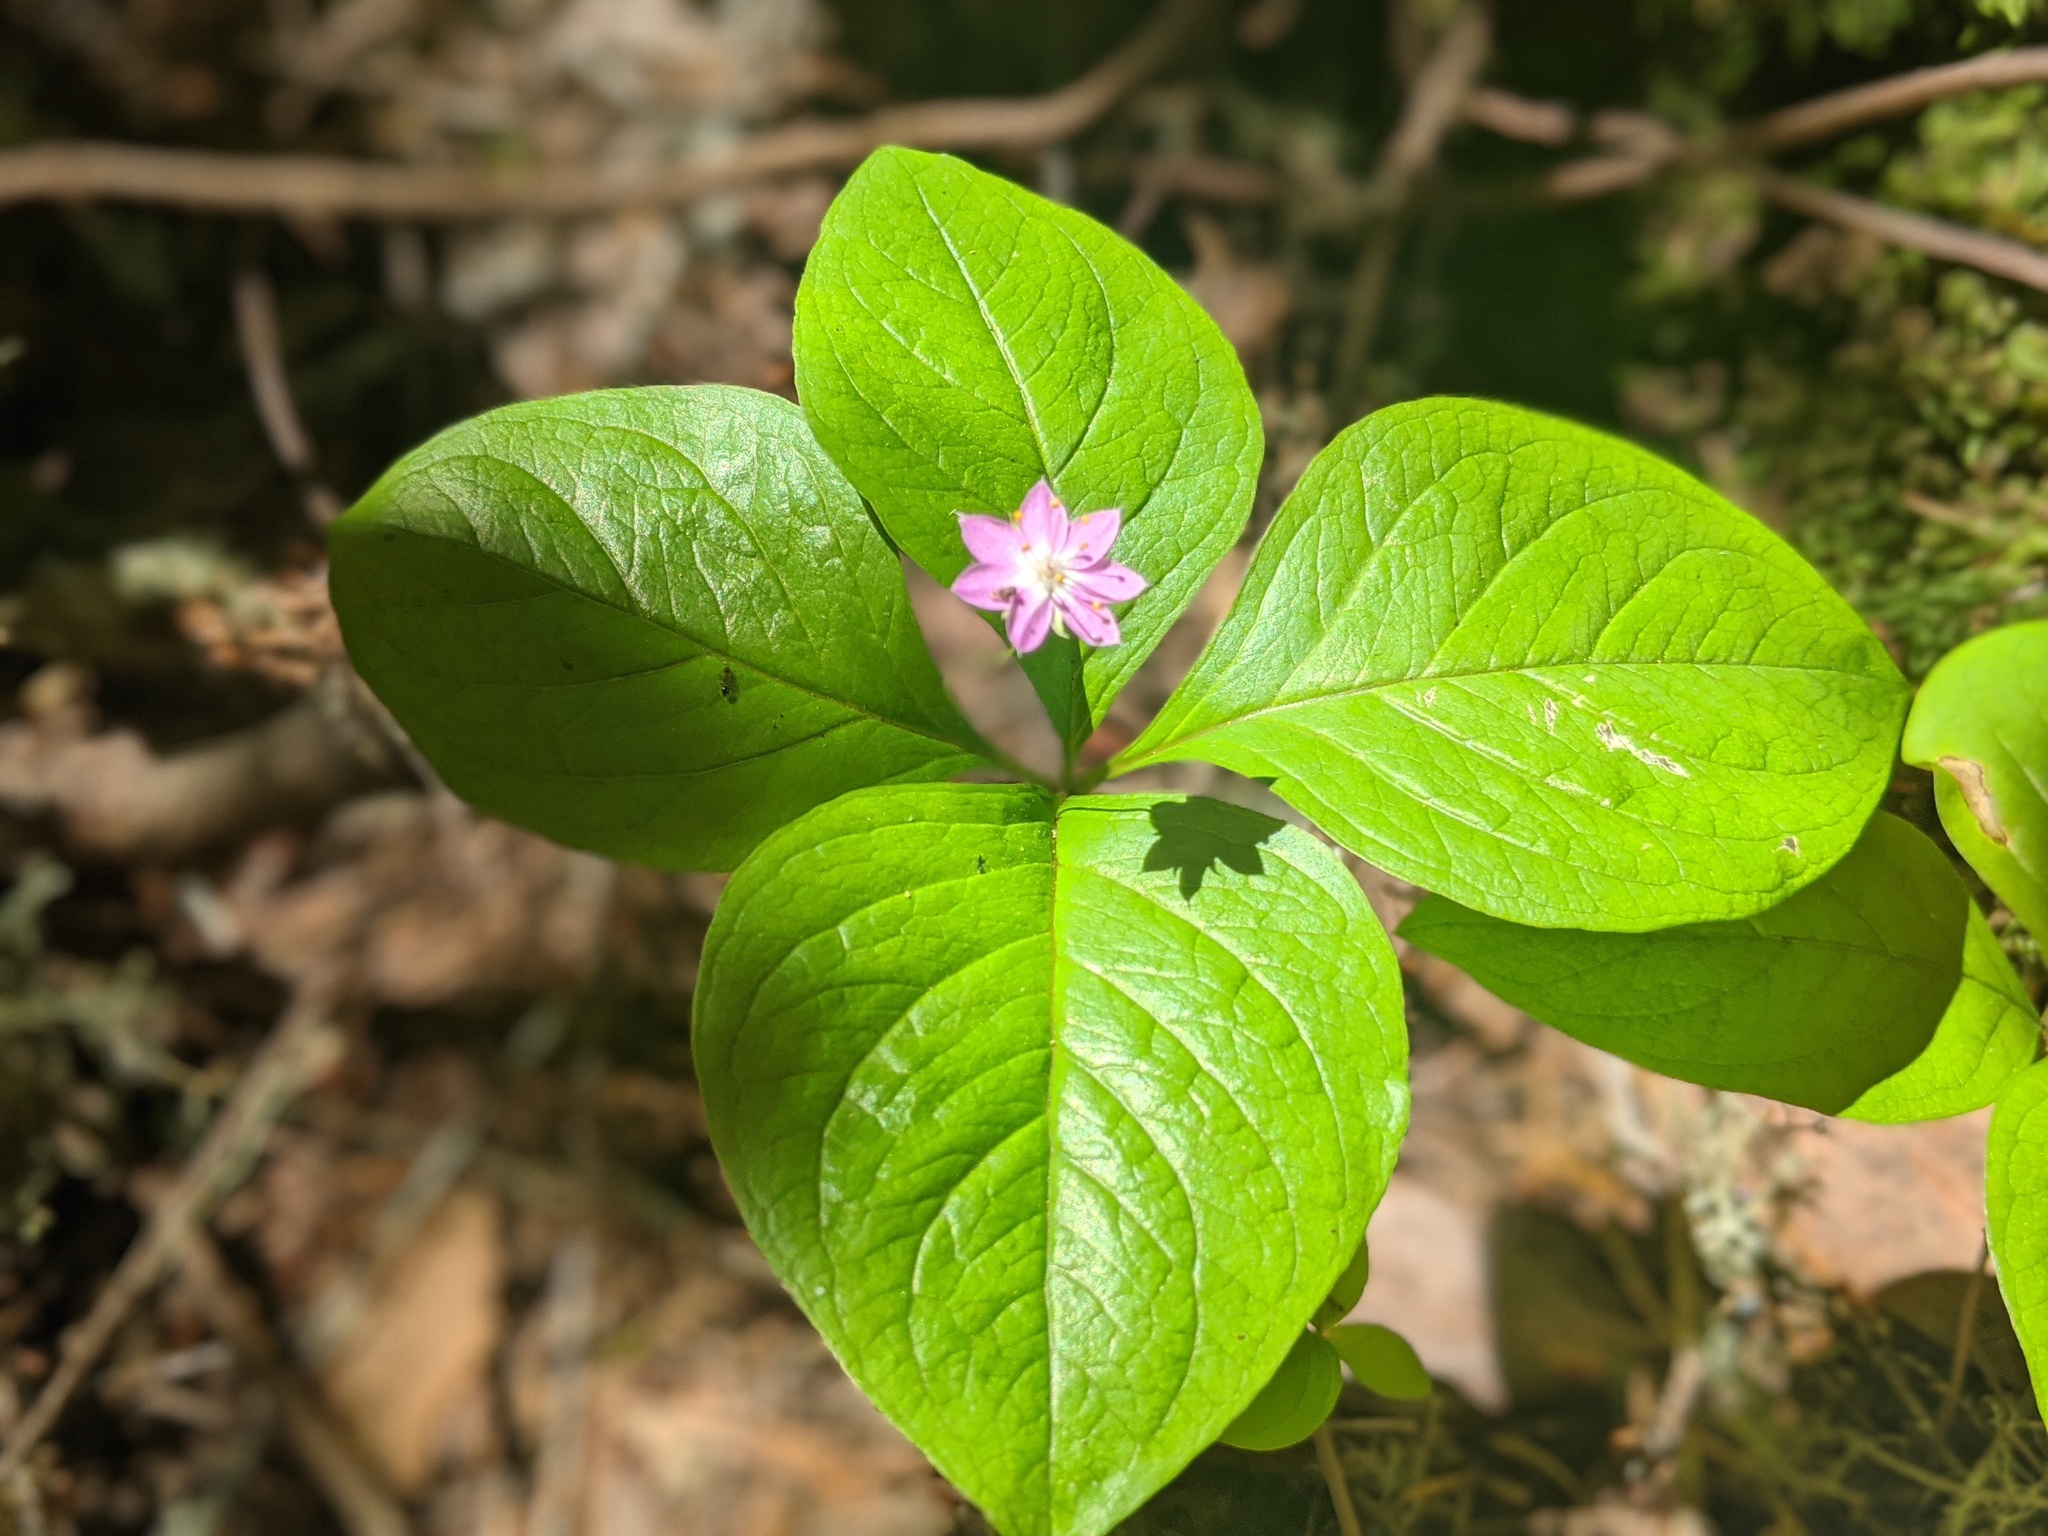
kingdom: Plantae
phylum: Tracheophyta
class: Magnoliopsida
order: Ericales
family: Primulaceae
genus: Lysimachia
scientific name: Lysimachia latifolia
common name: Pacific starflower
